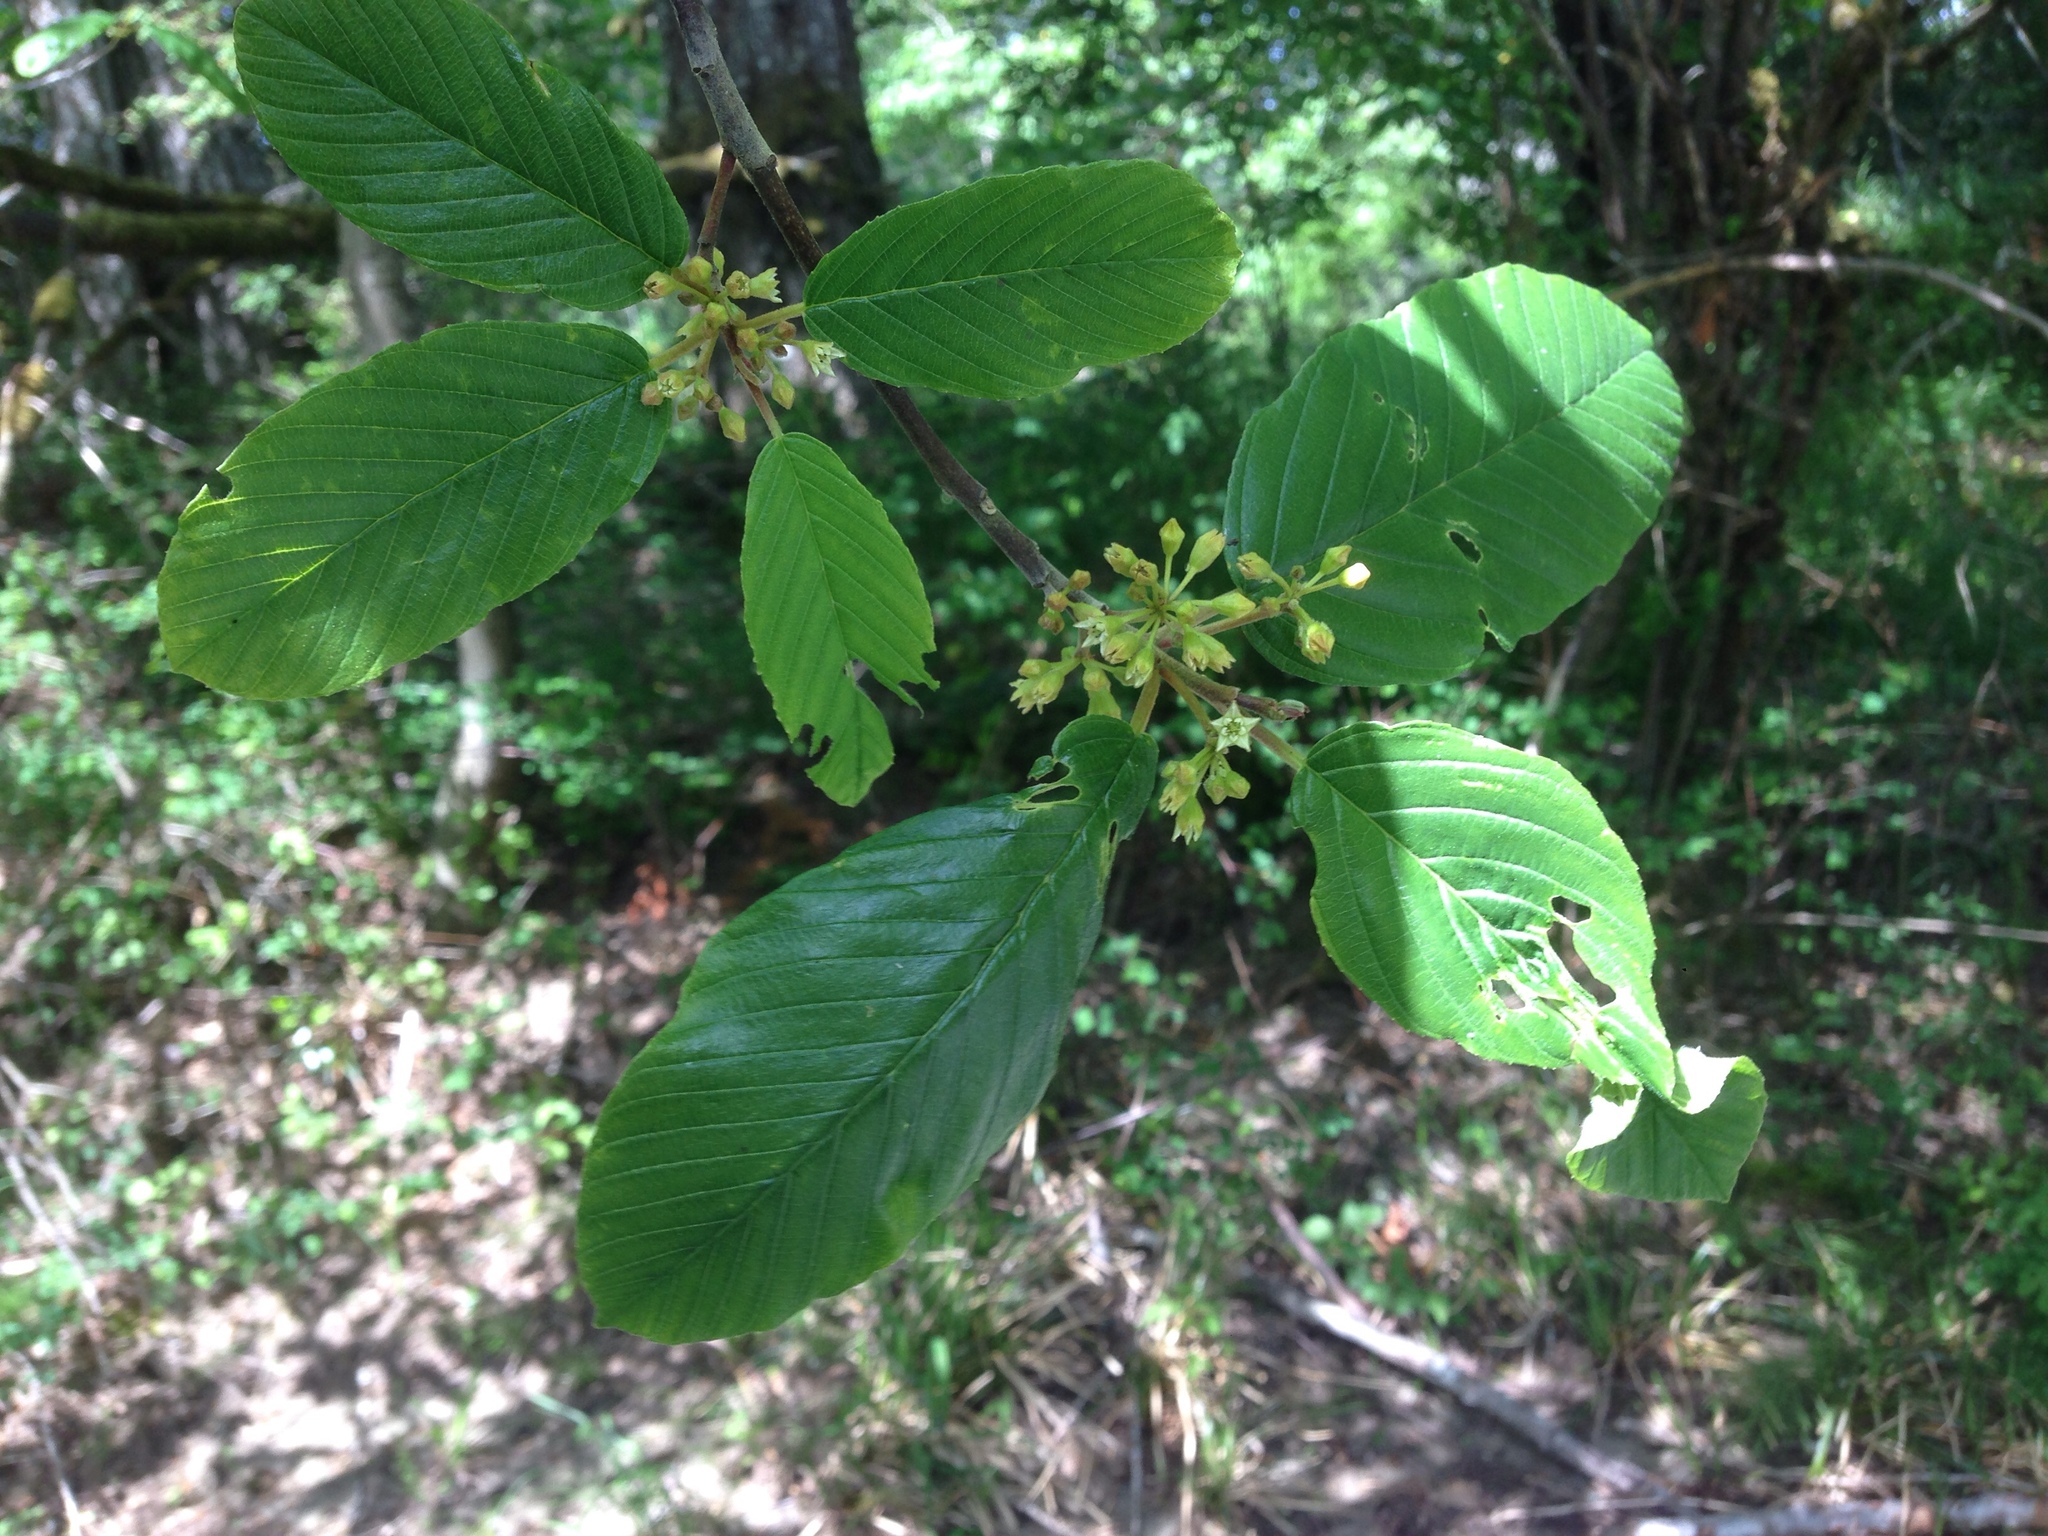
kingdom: Plantae
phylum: Tracheophyta
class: Magnoliopsida
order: Rosales
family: Rhamnaceae
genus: Frangula
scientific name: Frangula purshiana
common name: Cascara buckthorn
